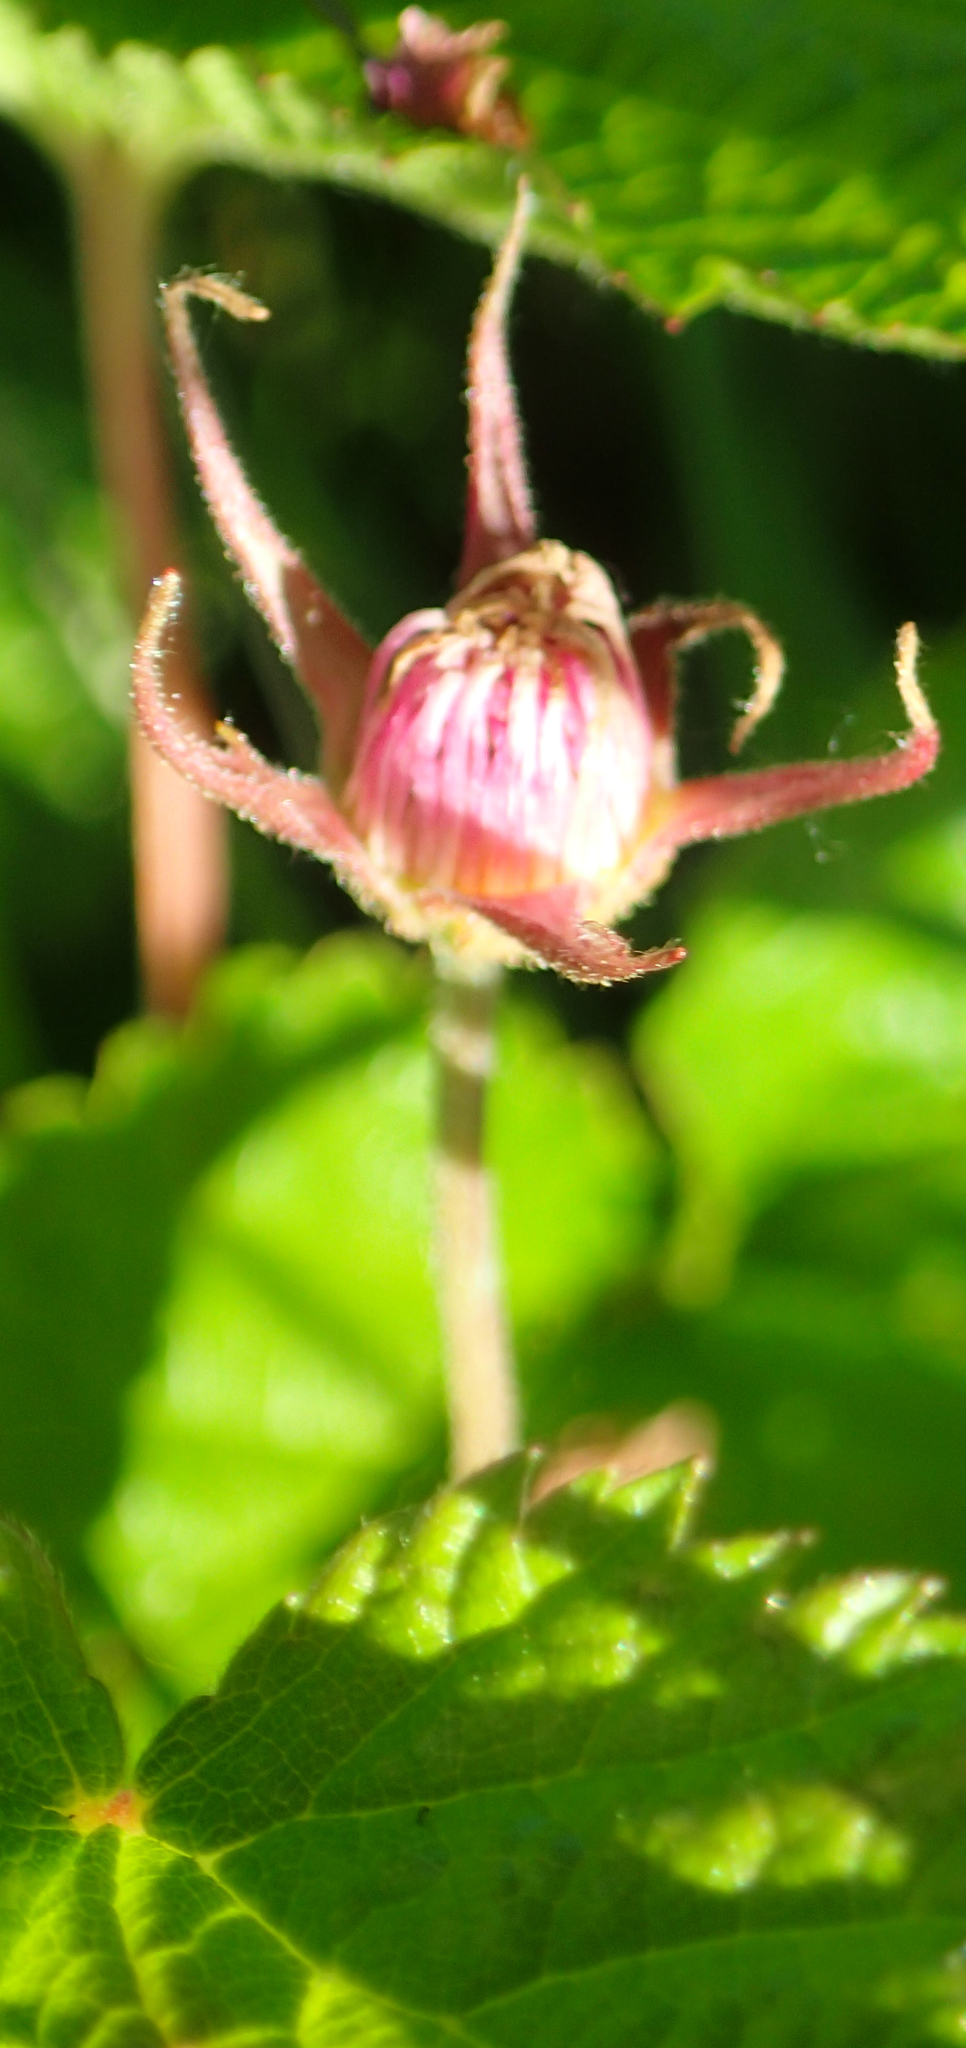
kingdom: Plantae
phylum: Tracheophyta
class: Magnoliopsida
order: Rosales
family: Rosaceae
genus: Rubus
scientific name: Rubus arcticus
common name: Arctic bramble
